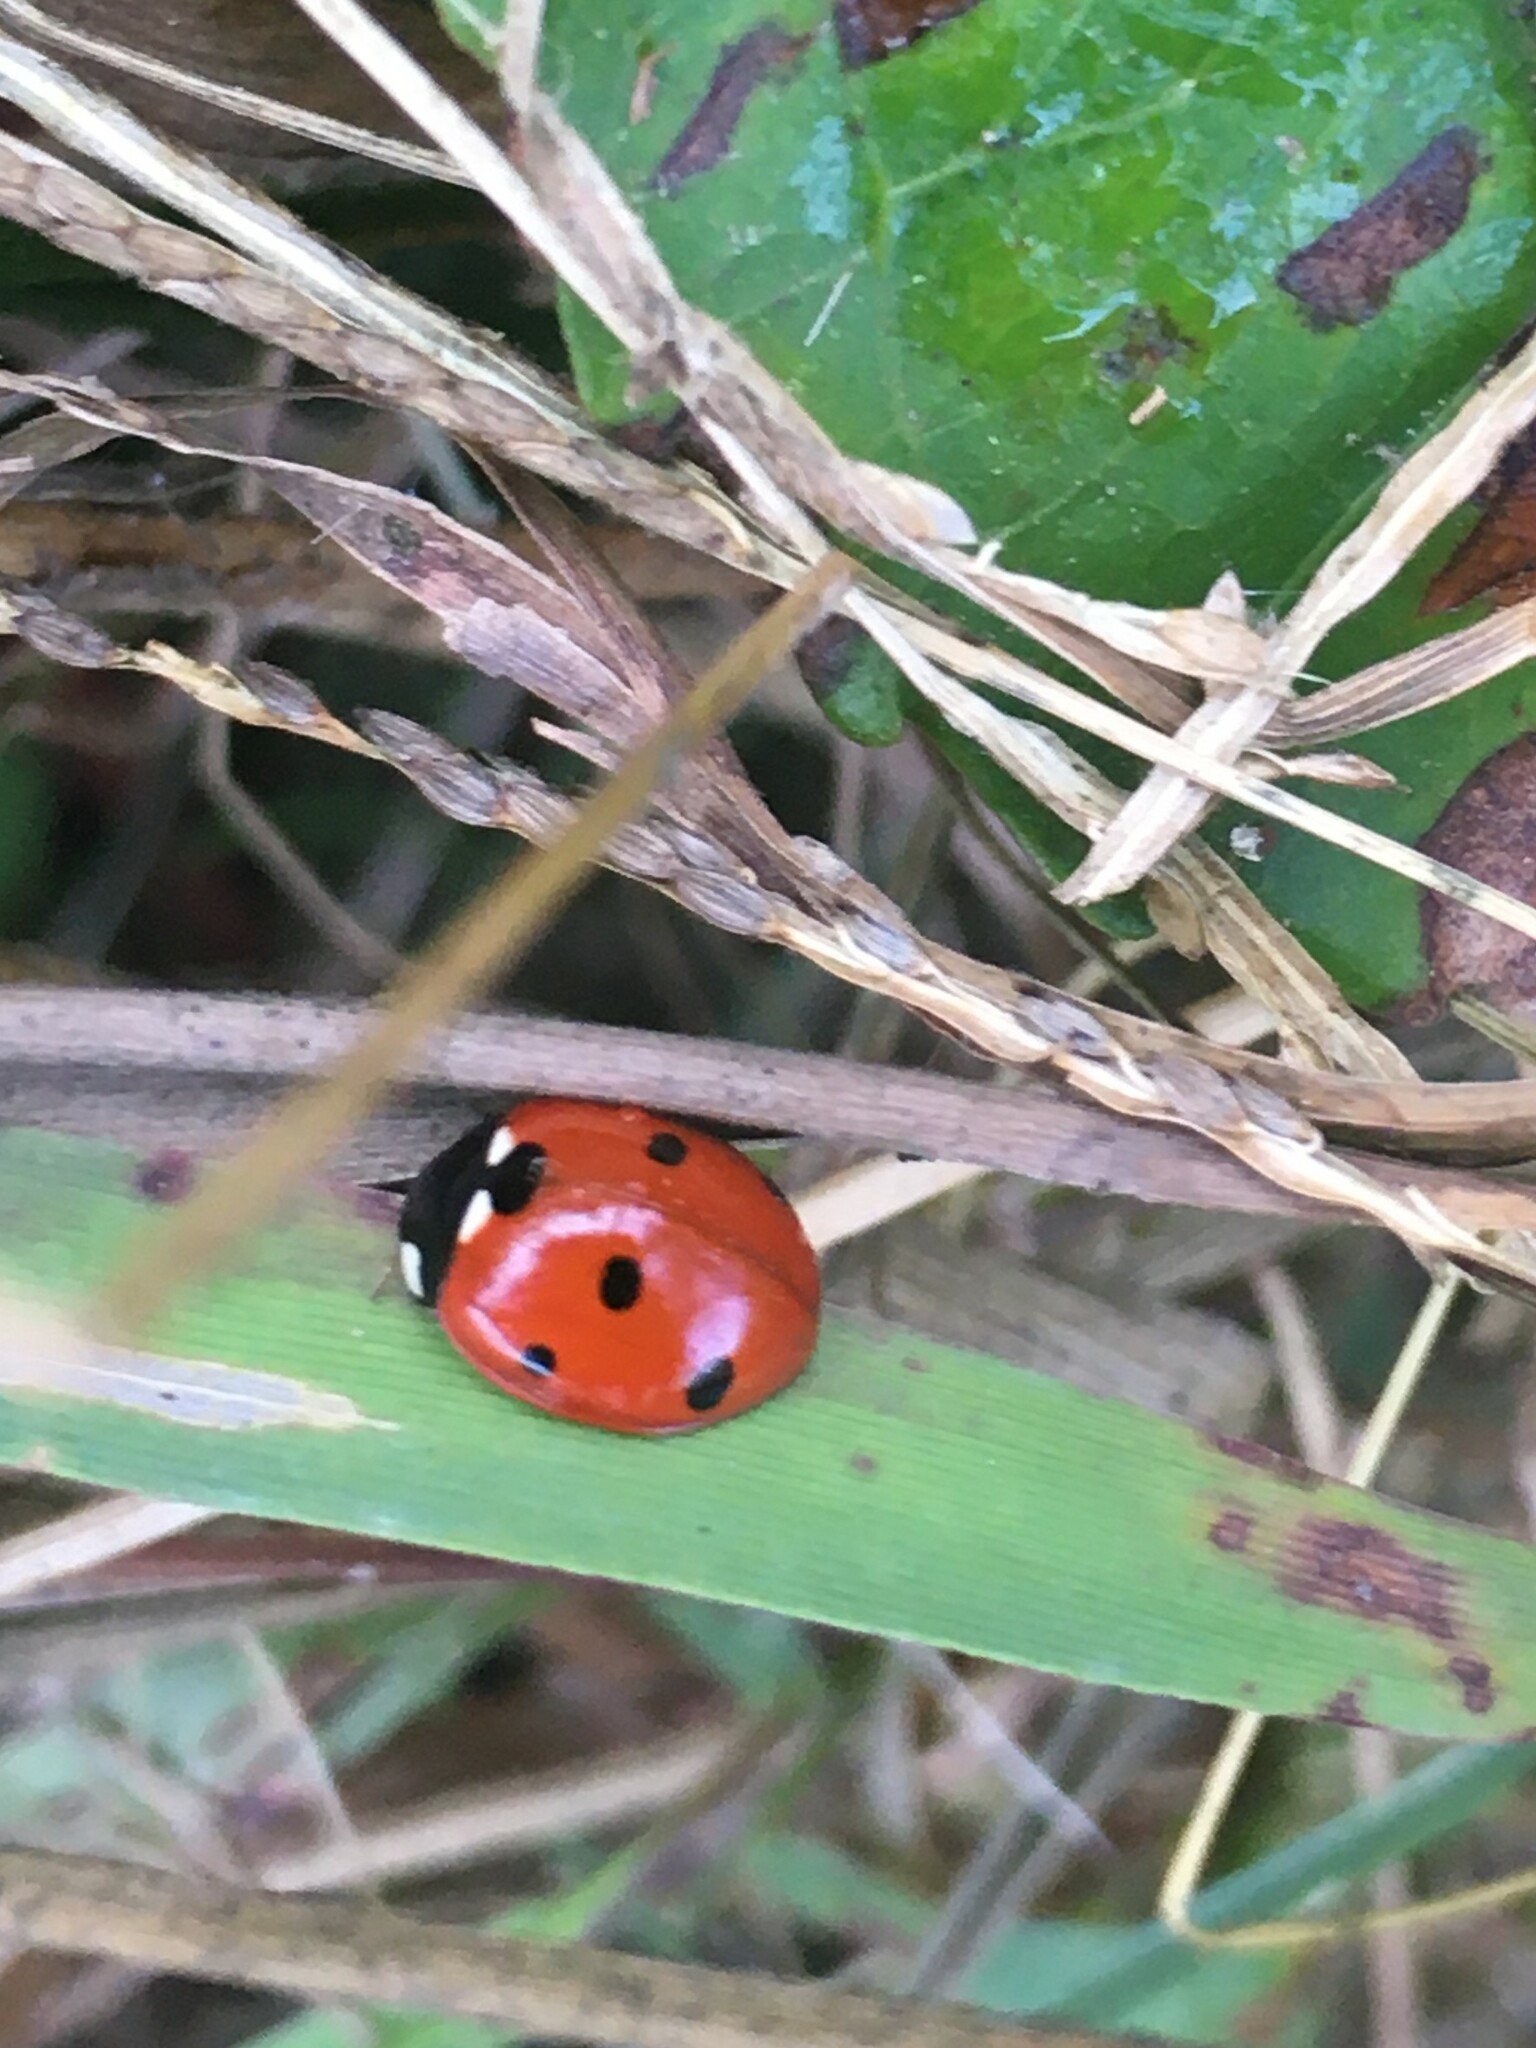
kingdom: Animalia
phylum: Arthropoda
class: Insecta
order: Coleoptera
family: Coccinellidae
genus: Coccinella
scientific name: Coccinella septempunctata
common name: Sevenspotted lady beetle
